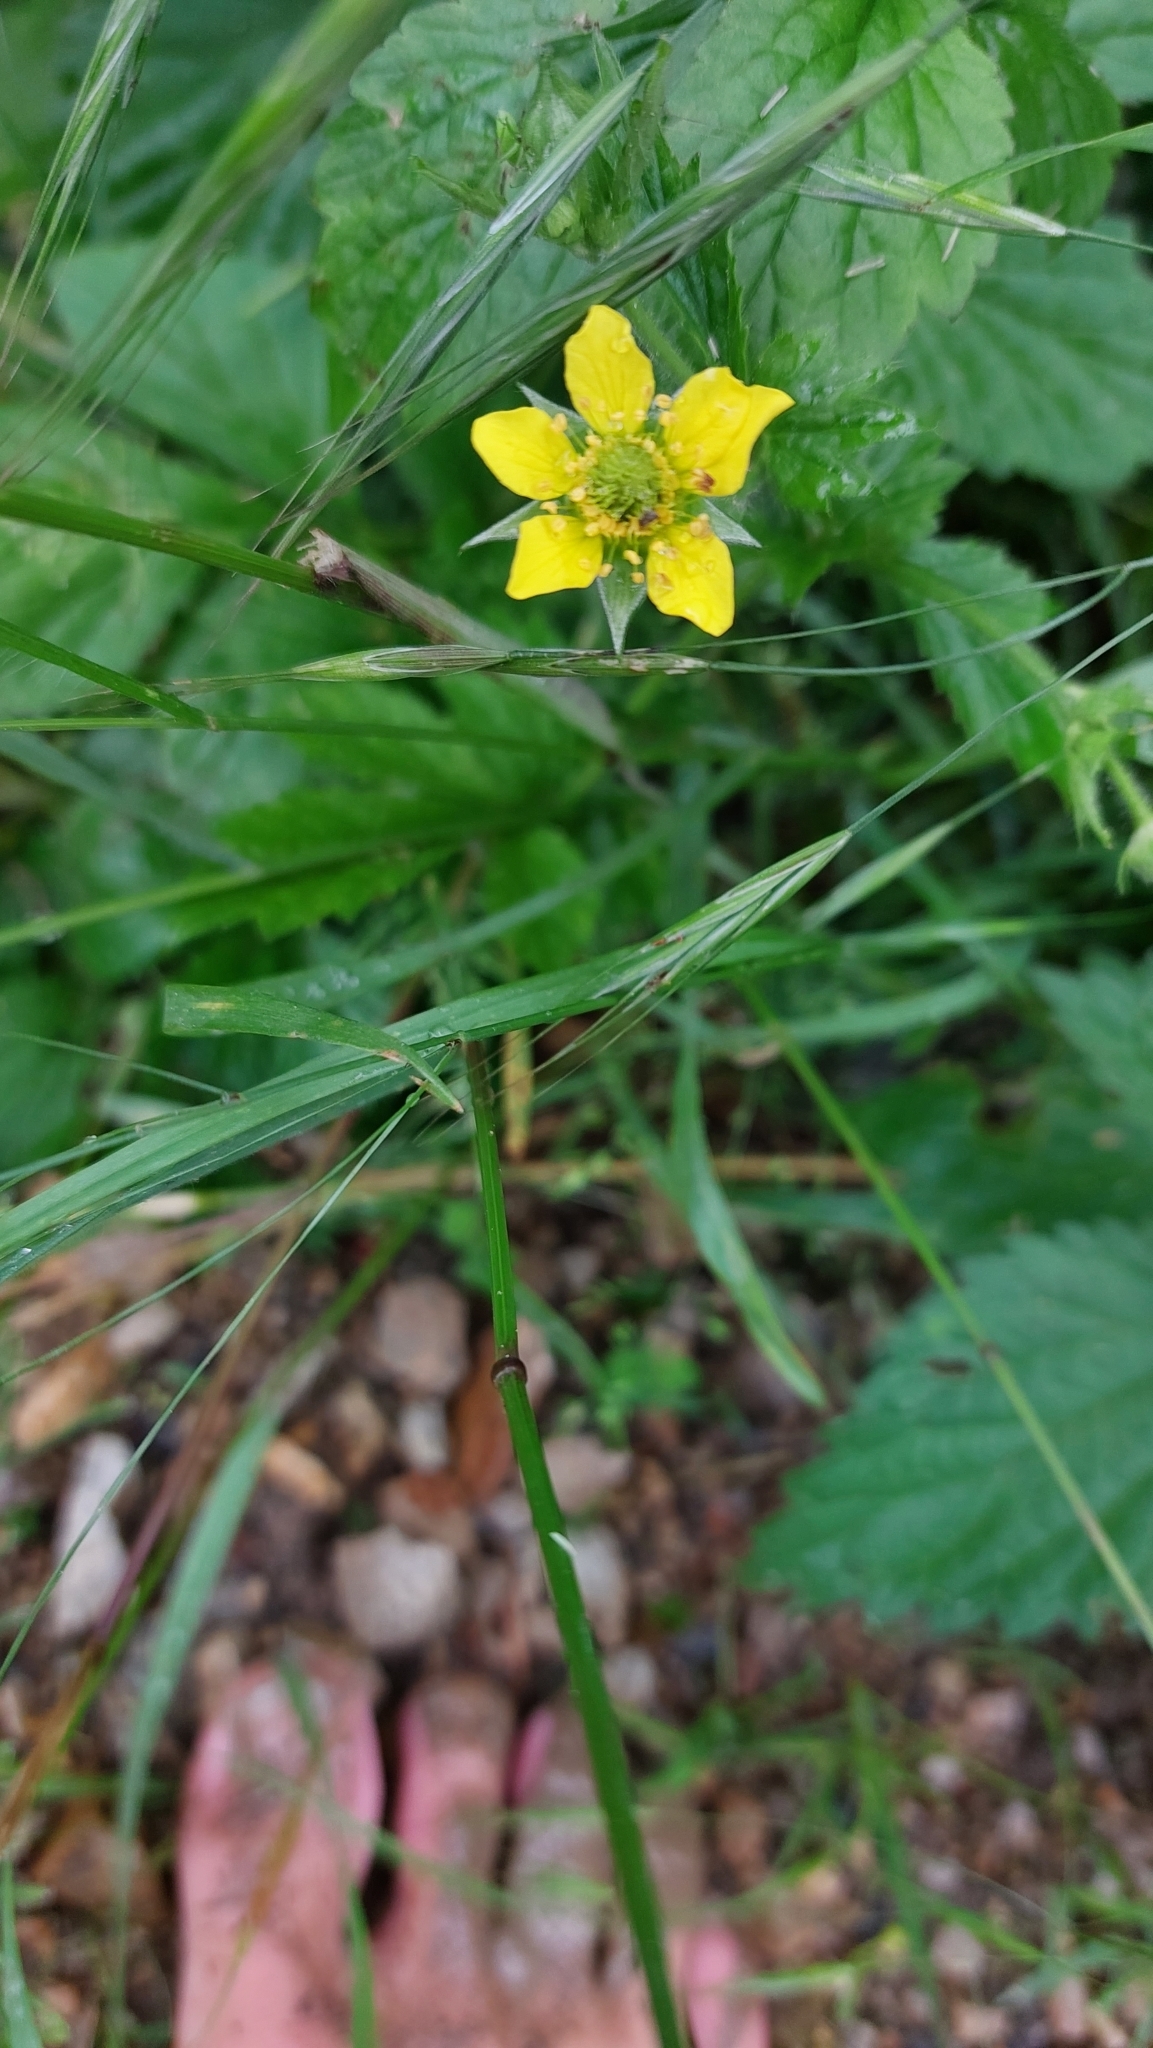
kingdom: Plantae
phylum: Tracheophyta
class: Magnoliopsida
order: Rosales
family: Rosaceae
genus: Geum
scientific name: Geum urbanum
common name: Wood avens
